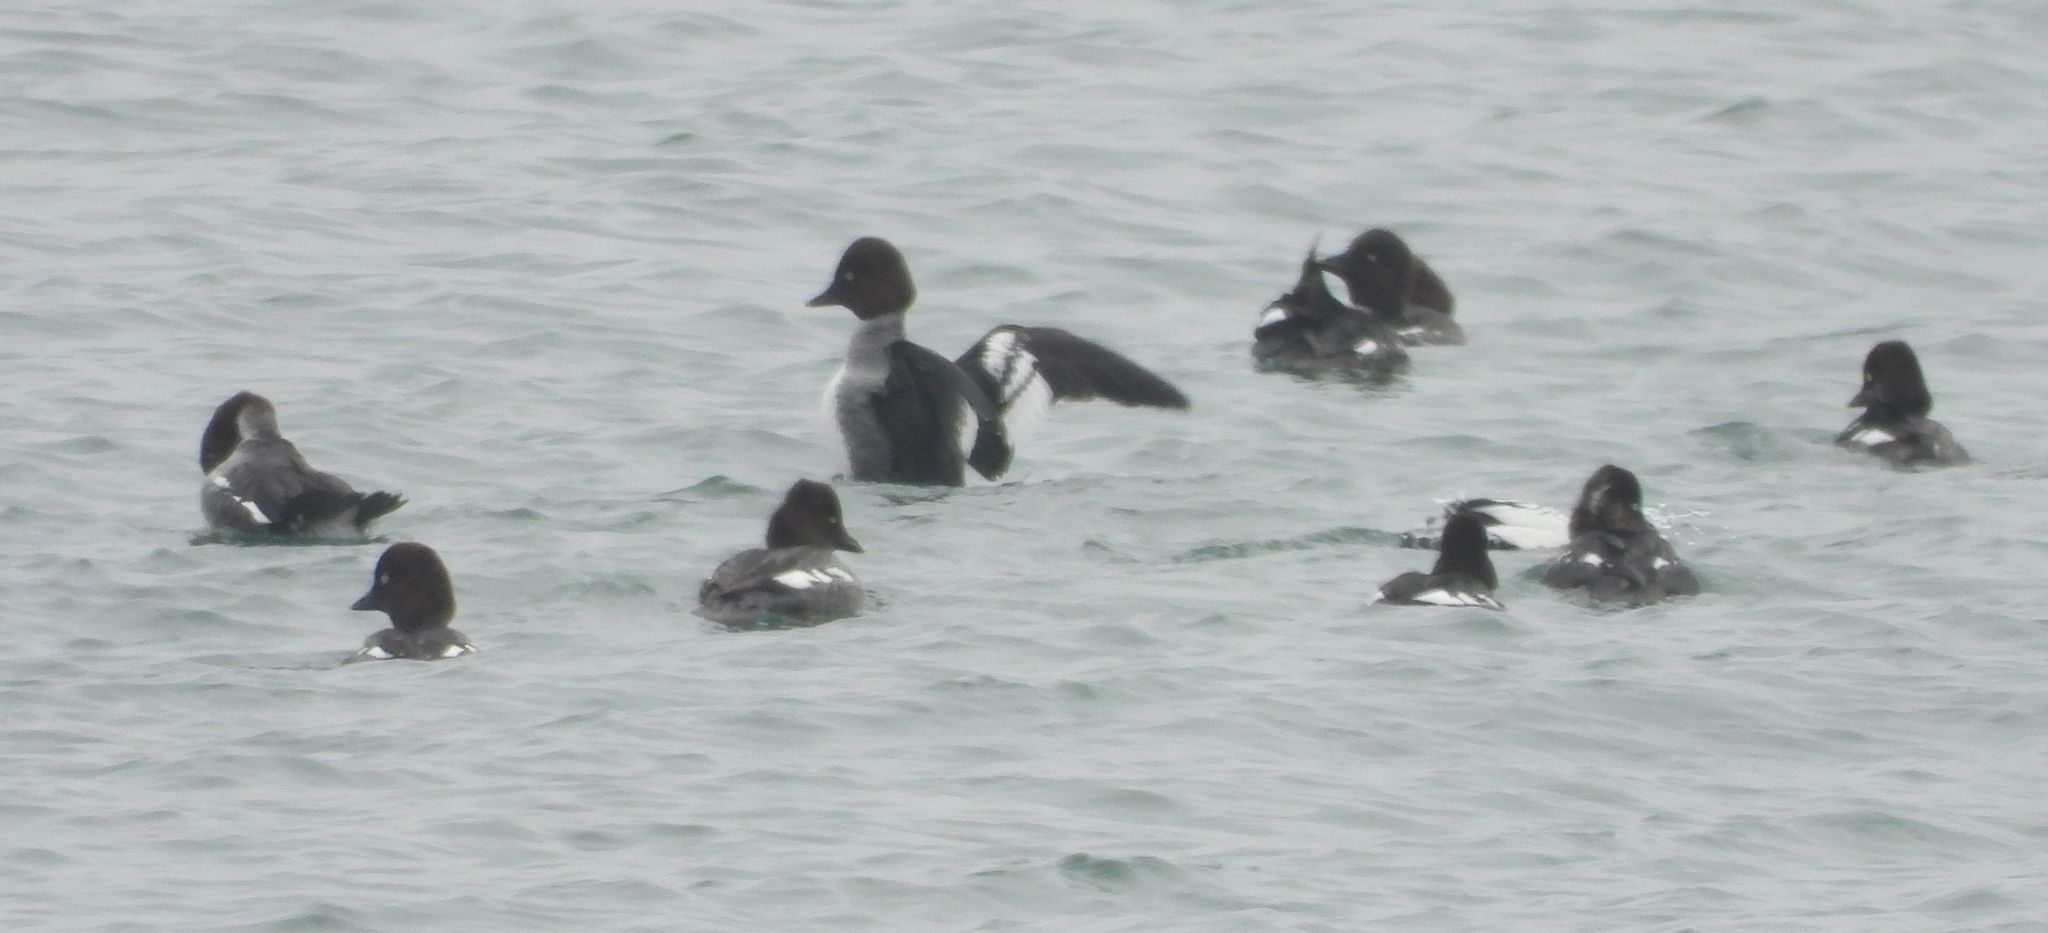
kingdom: Animalia
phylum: Chordata
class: Aves
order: Anseriformes
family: Anatidae
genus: Bucephala
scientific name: Bucephala clangula
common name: Common goldeneye
